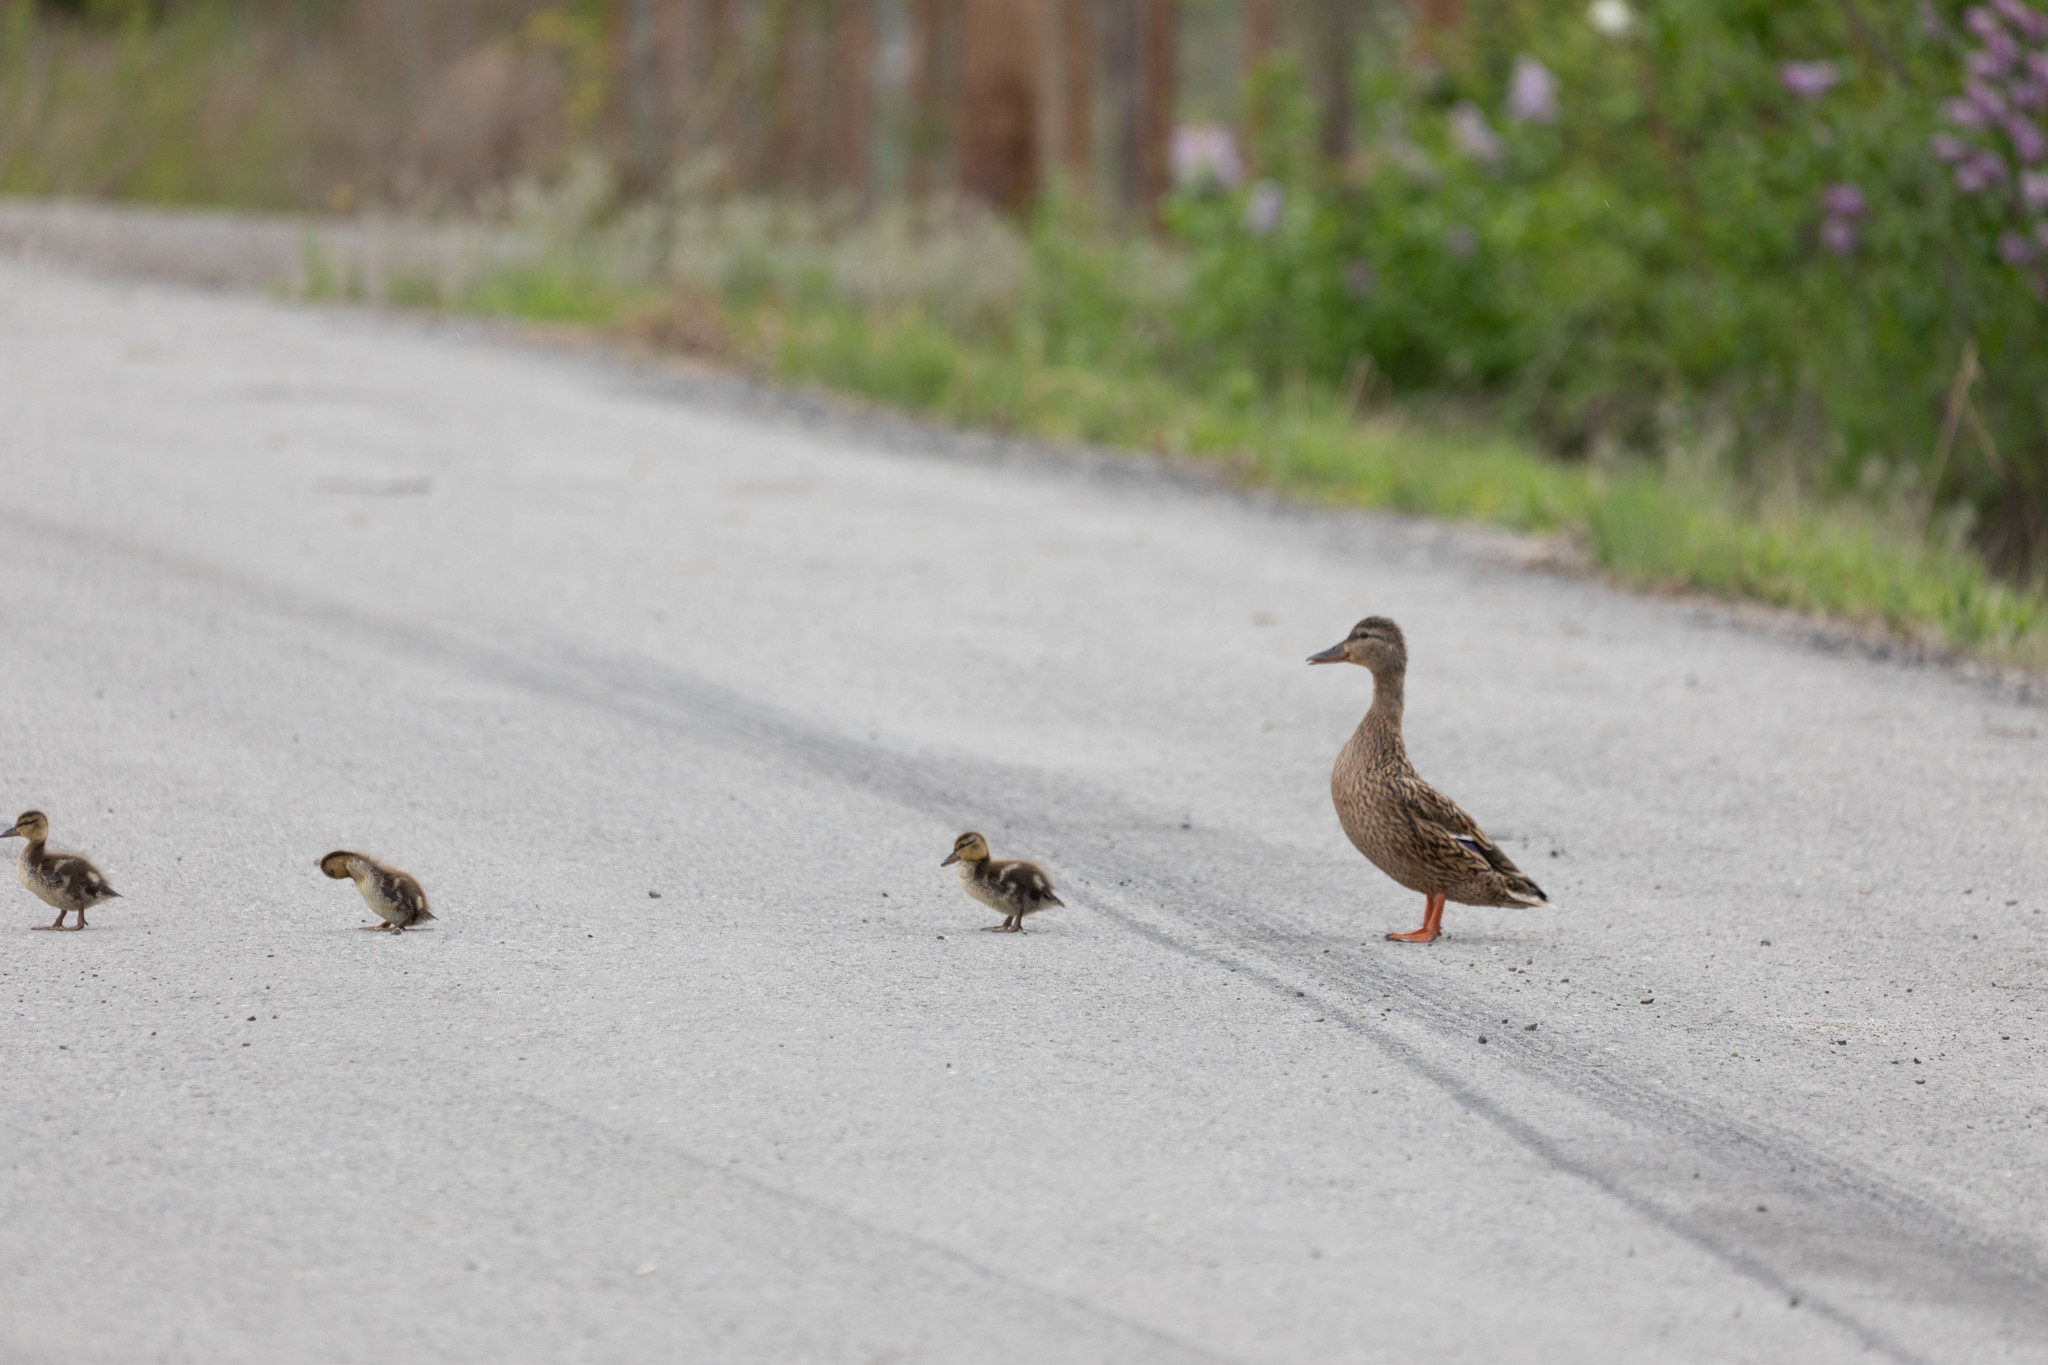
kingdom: Animalia
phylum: Chordata
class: Aves
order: Anseriformes
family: Anatidae
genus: Anas
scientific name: Anas platyrhynchos
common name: Mallard
